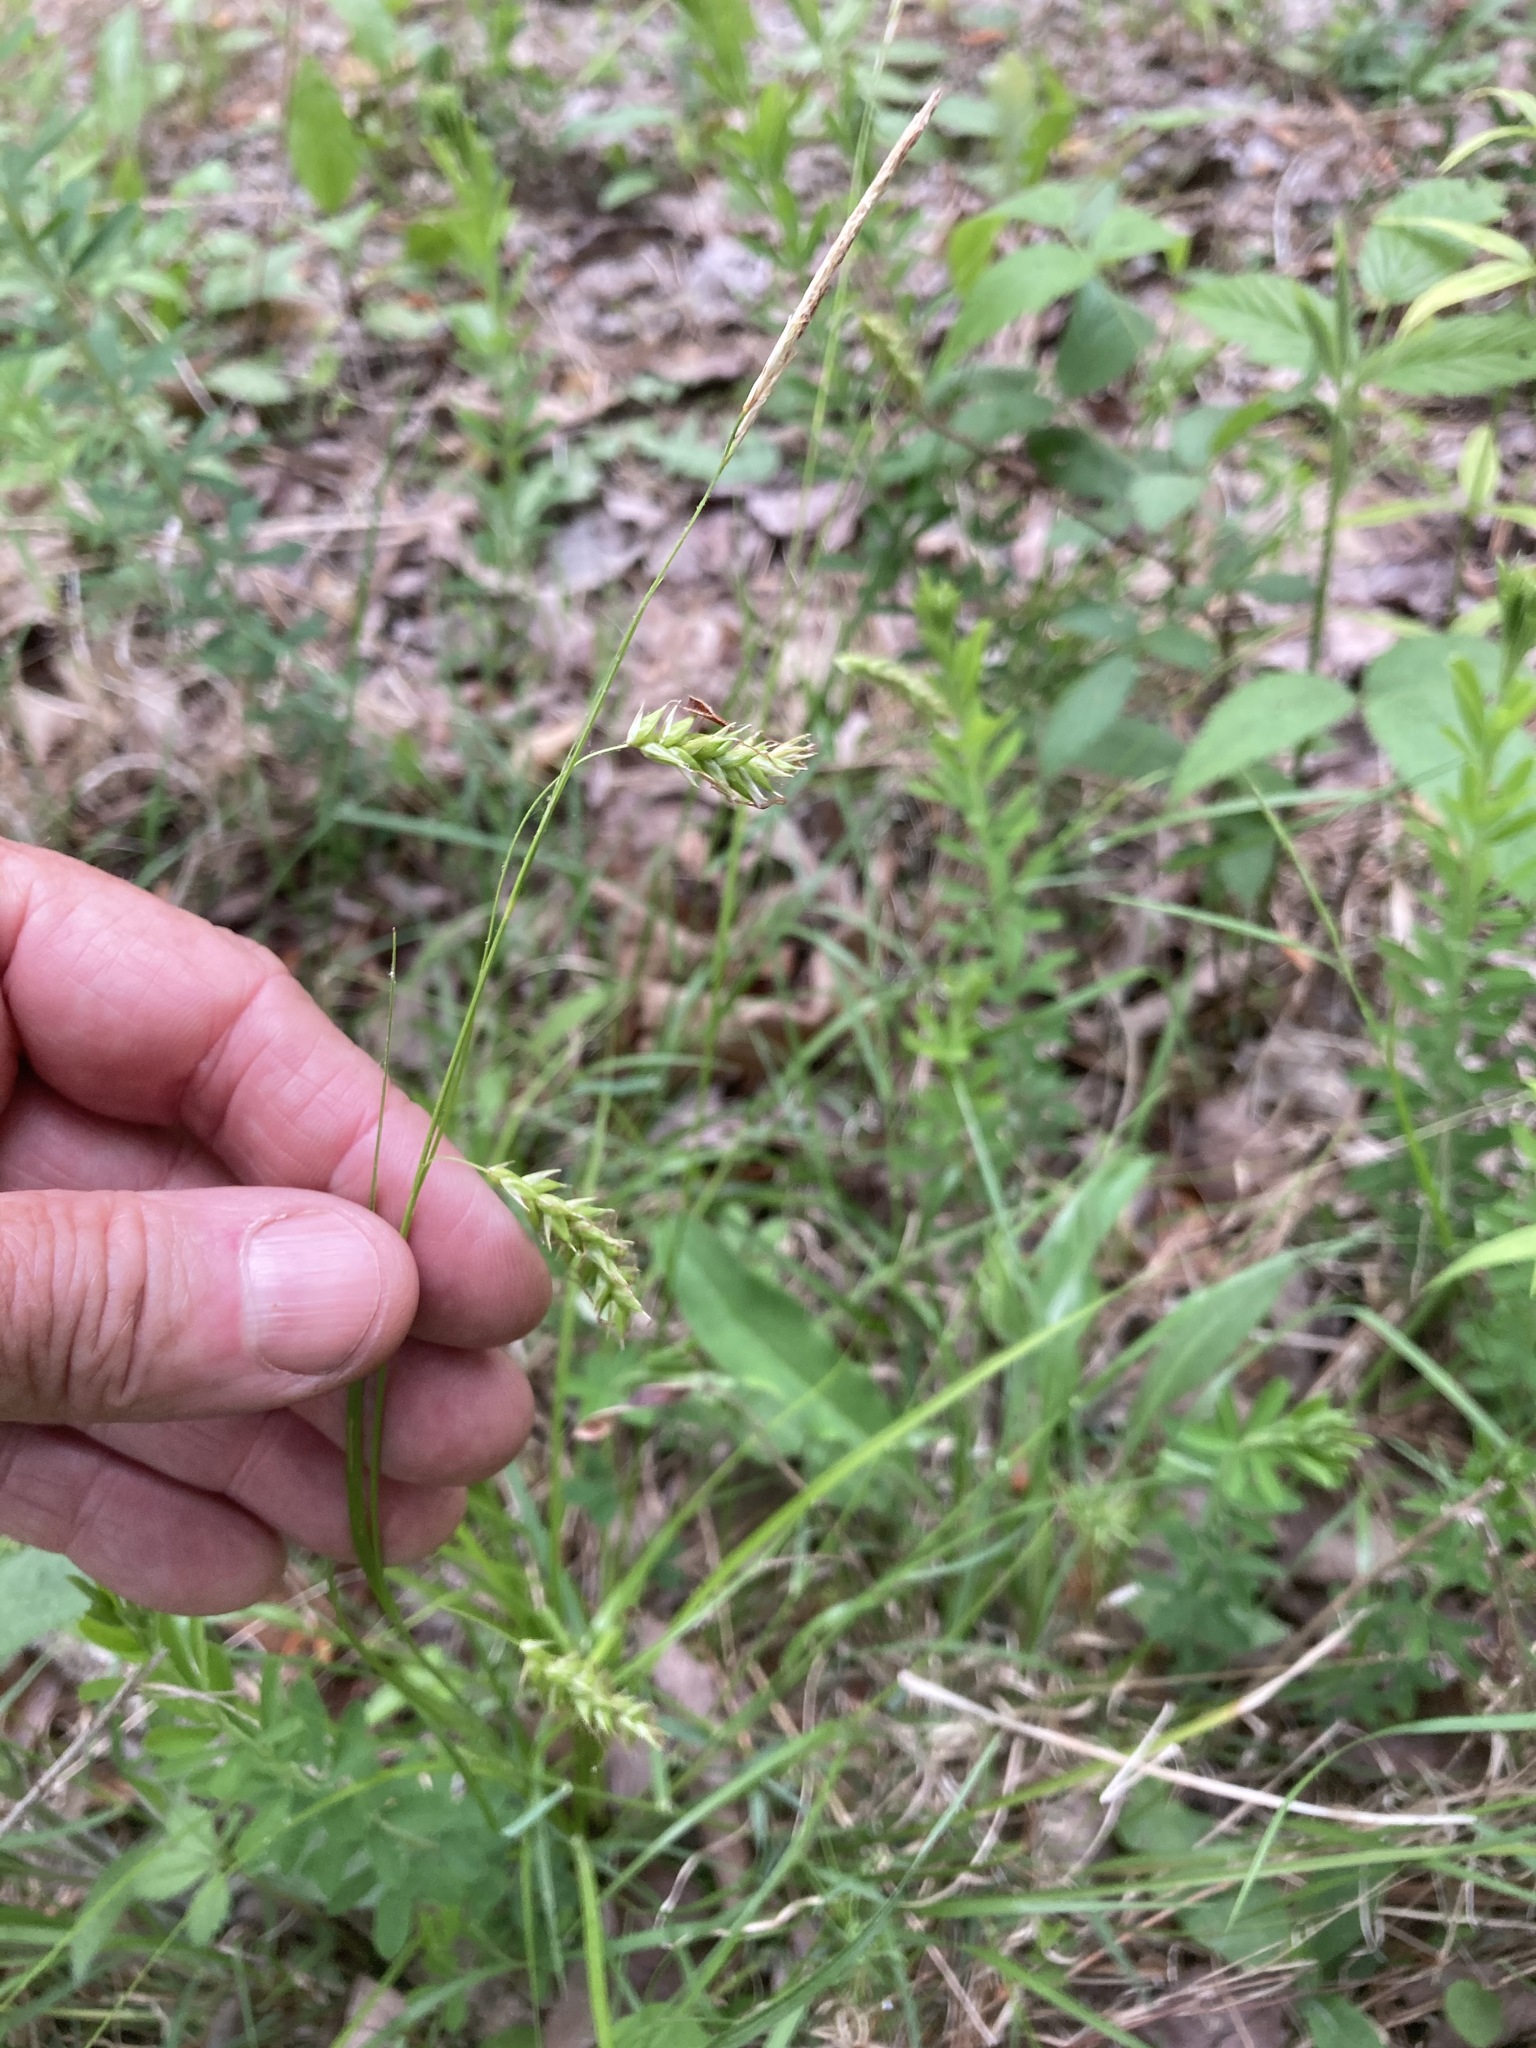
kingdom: Plantae
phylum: Tracheophyta
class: Liliopsida
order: Poales
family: Cyperaceae
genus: Carex
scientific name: Carex cherokeensis
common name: Cherokee sedge
